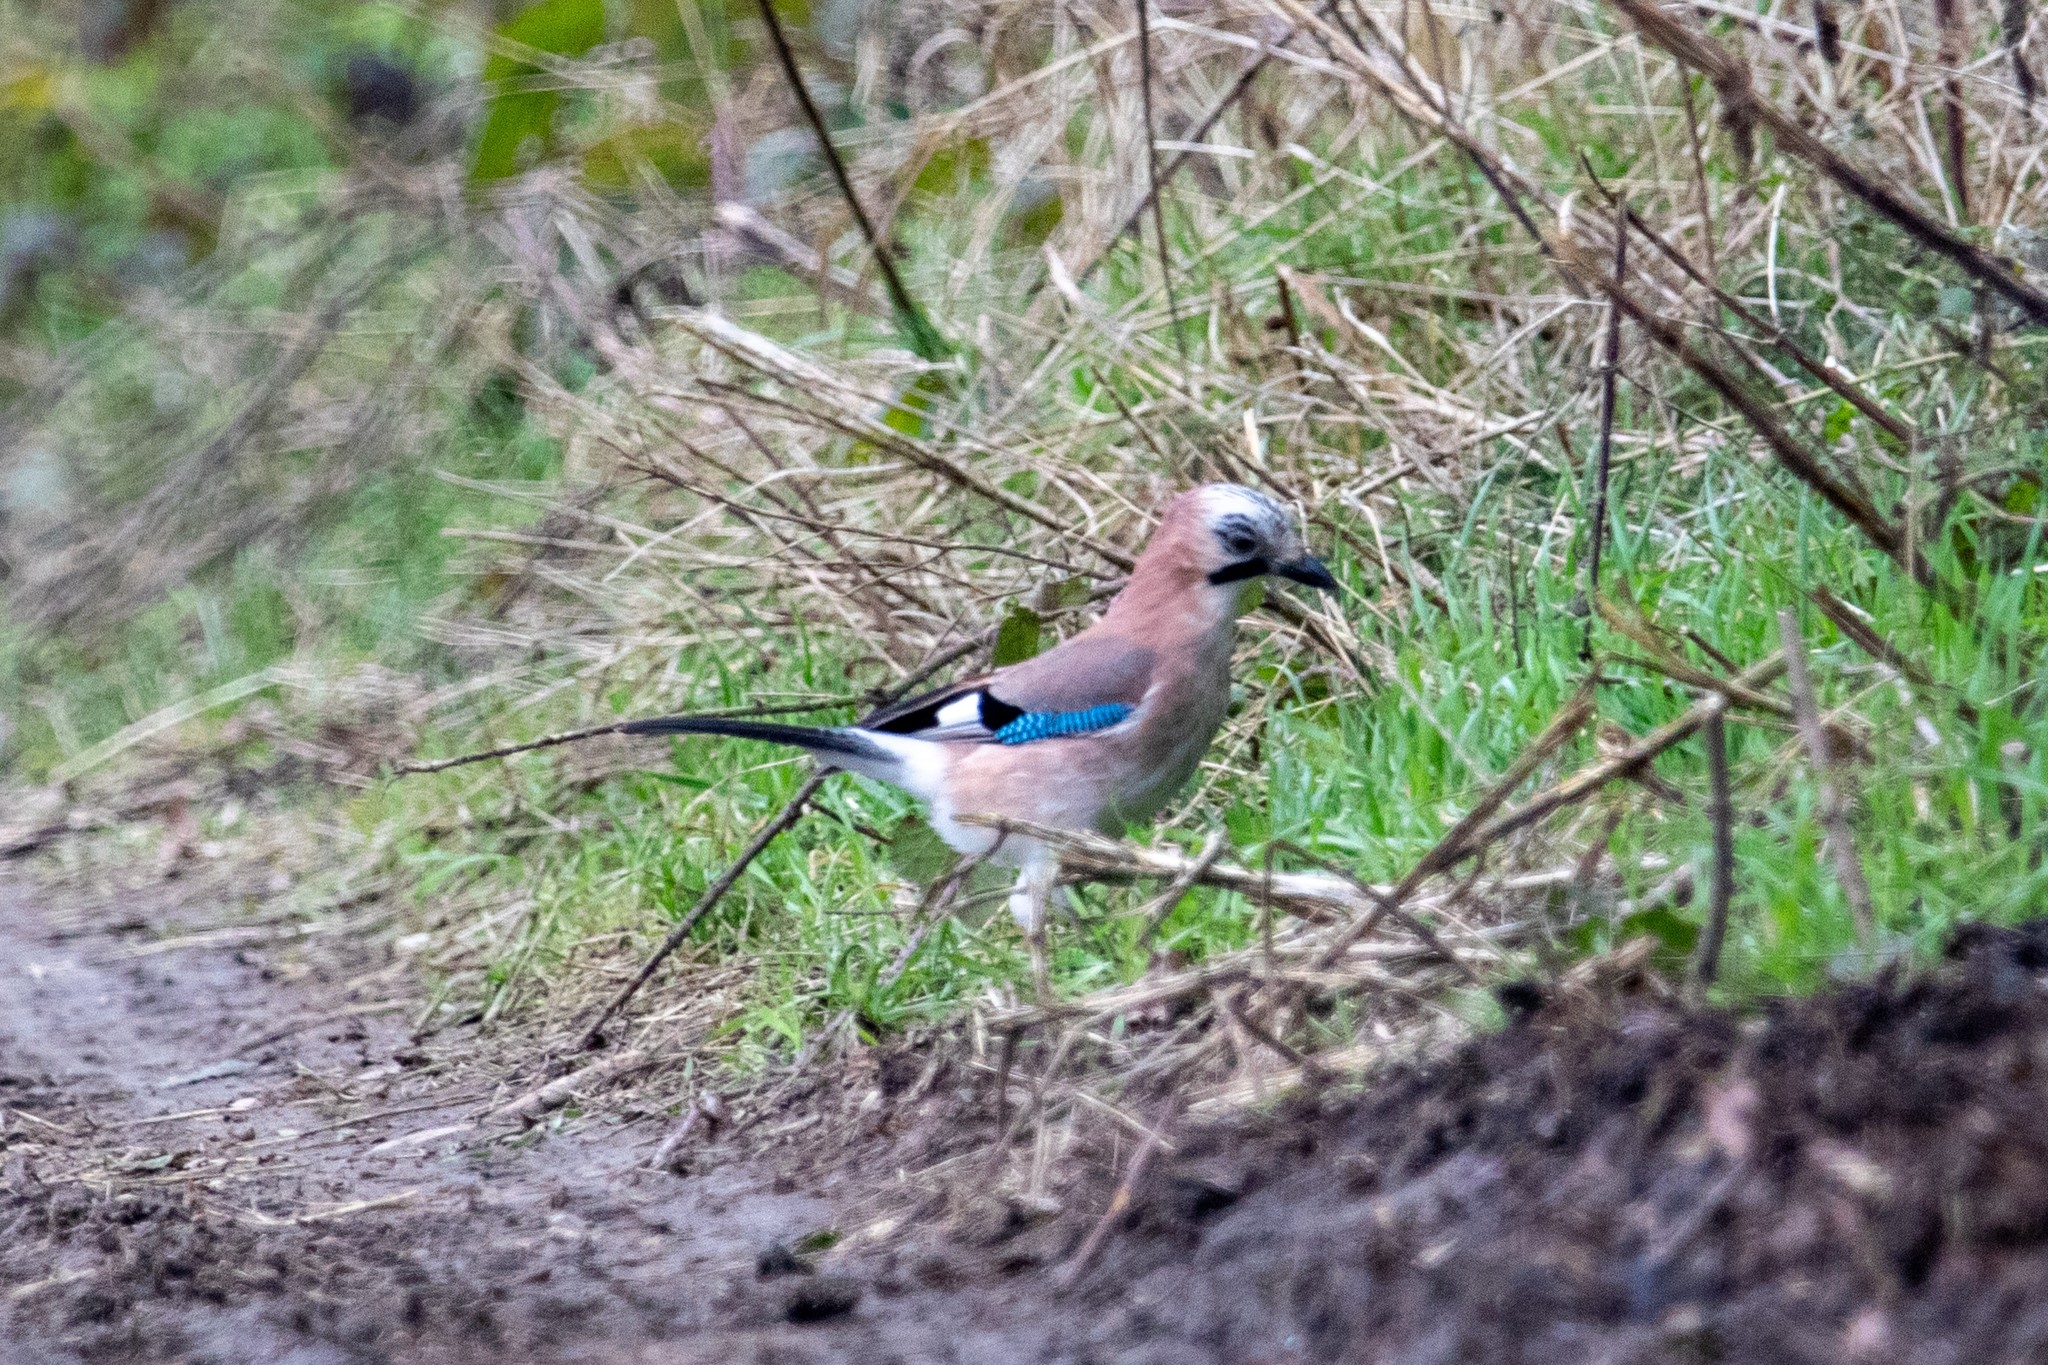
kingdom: Animalia
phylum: Chordata
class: Aves
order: Passeriformes
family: Corvidae
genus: Garrulus
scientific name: Garrulus glandarius
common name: Eurasian jay
